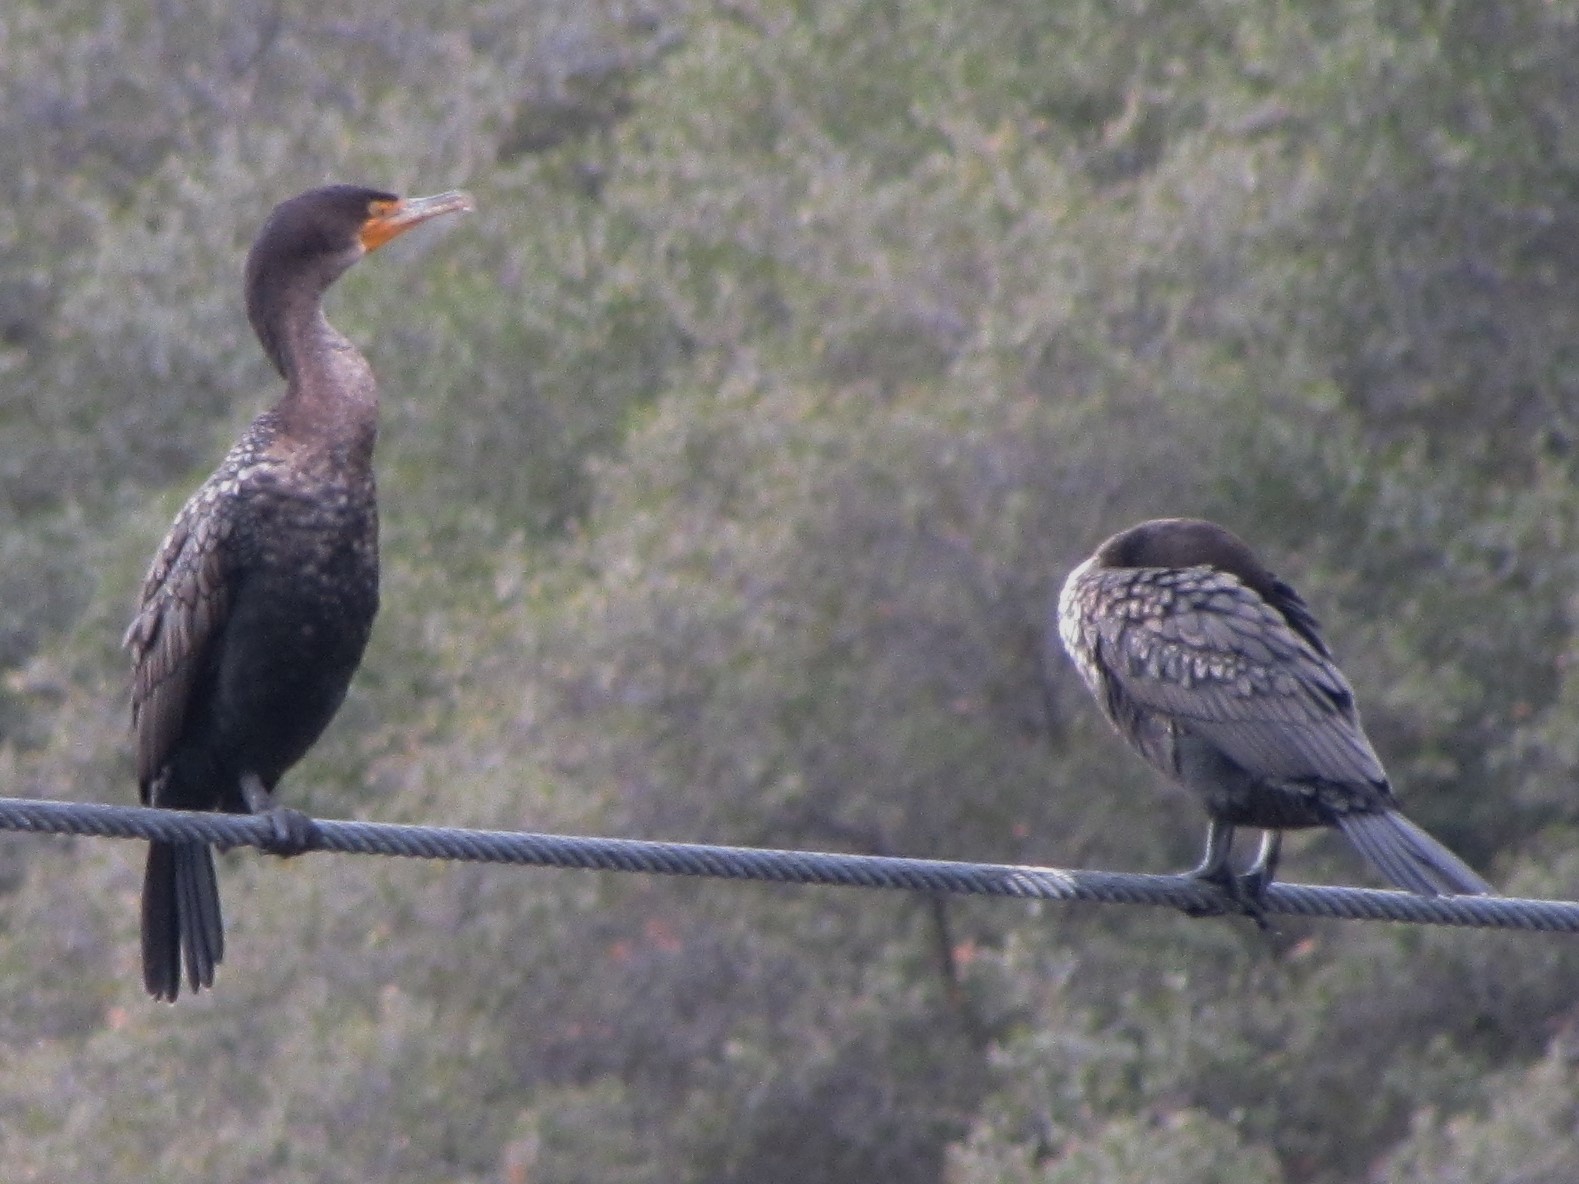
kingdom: Animalia
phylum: Chordata
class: Aves
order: Suliformes
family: Phalacrocoracidae
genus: Phalacrocorax
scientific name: Phalacrocorax auritus
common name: Double-crested cormorant
